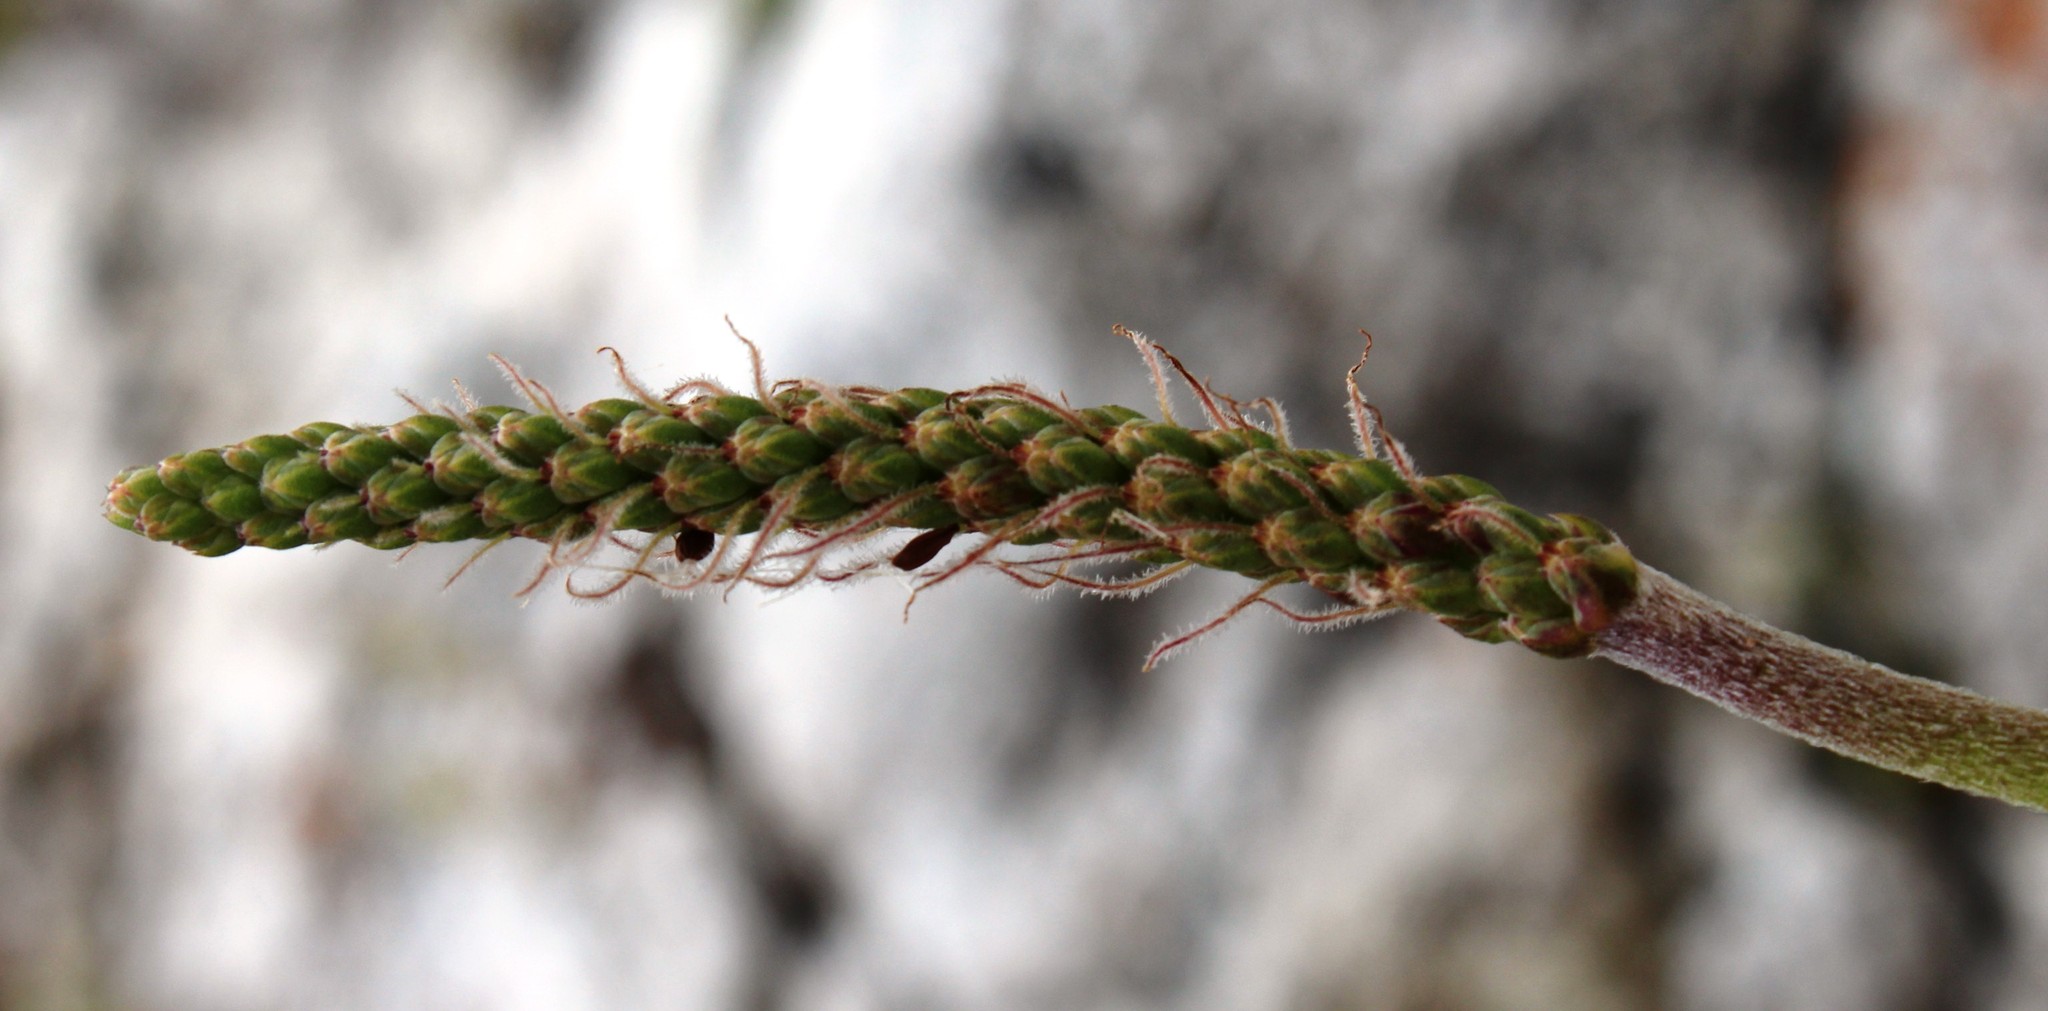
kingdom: Plantae
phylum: Tracheophyta
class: Magnoliopsida
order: Lamiales
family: Plantaginaceae
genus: Plantago
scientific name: Plantago carnosa
